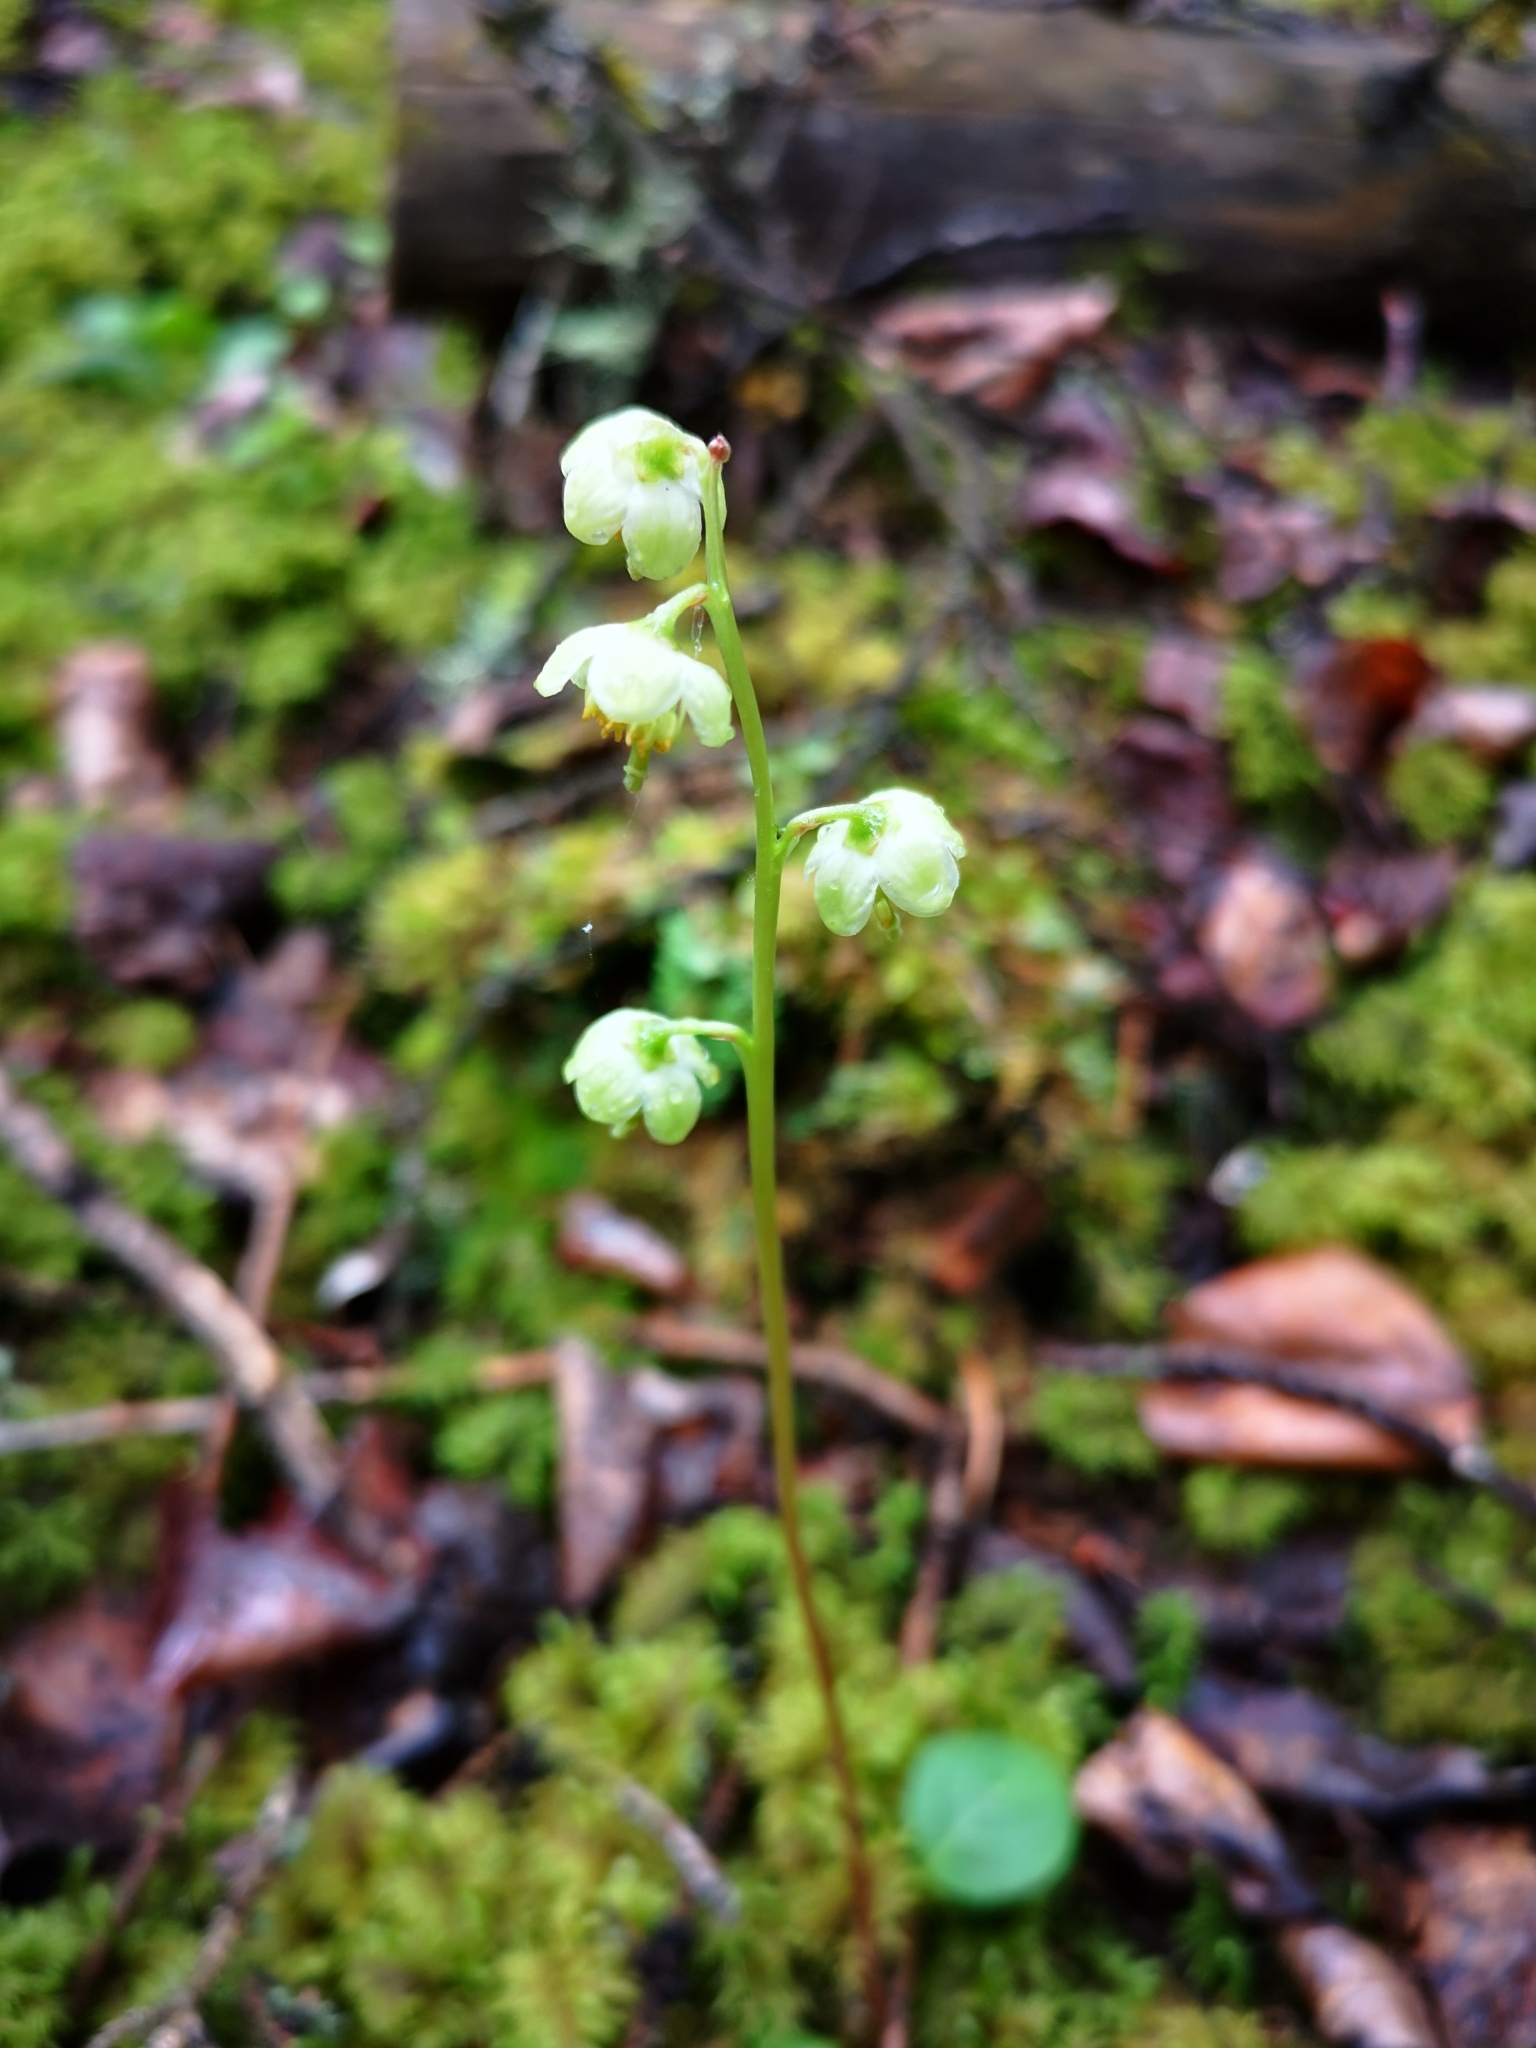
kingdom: Plantae
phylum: Tracheophyta
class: Magnoliopsida
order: Ericales
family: Ericaceae
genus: Pyrola
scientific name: Pyrola chlorantha
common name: Green wintergreen
